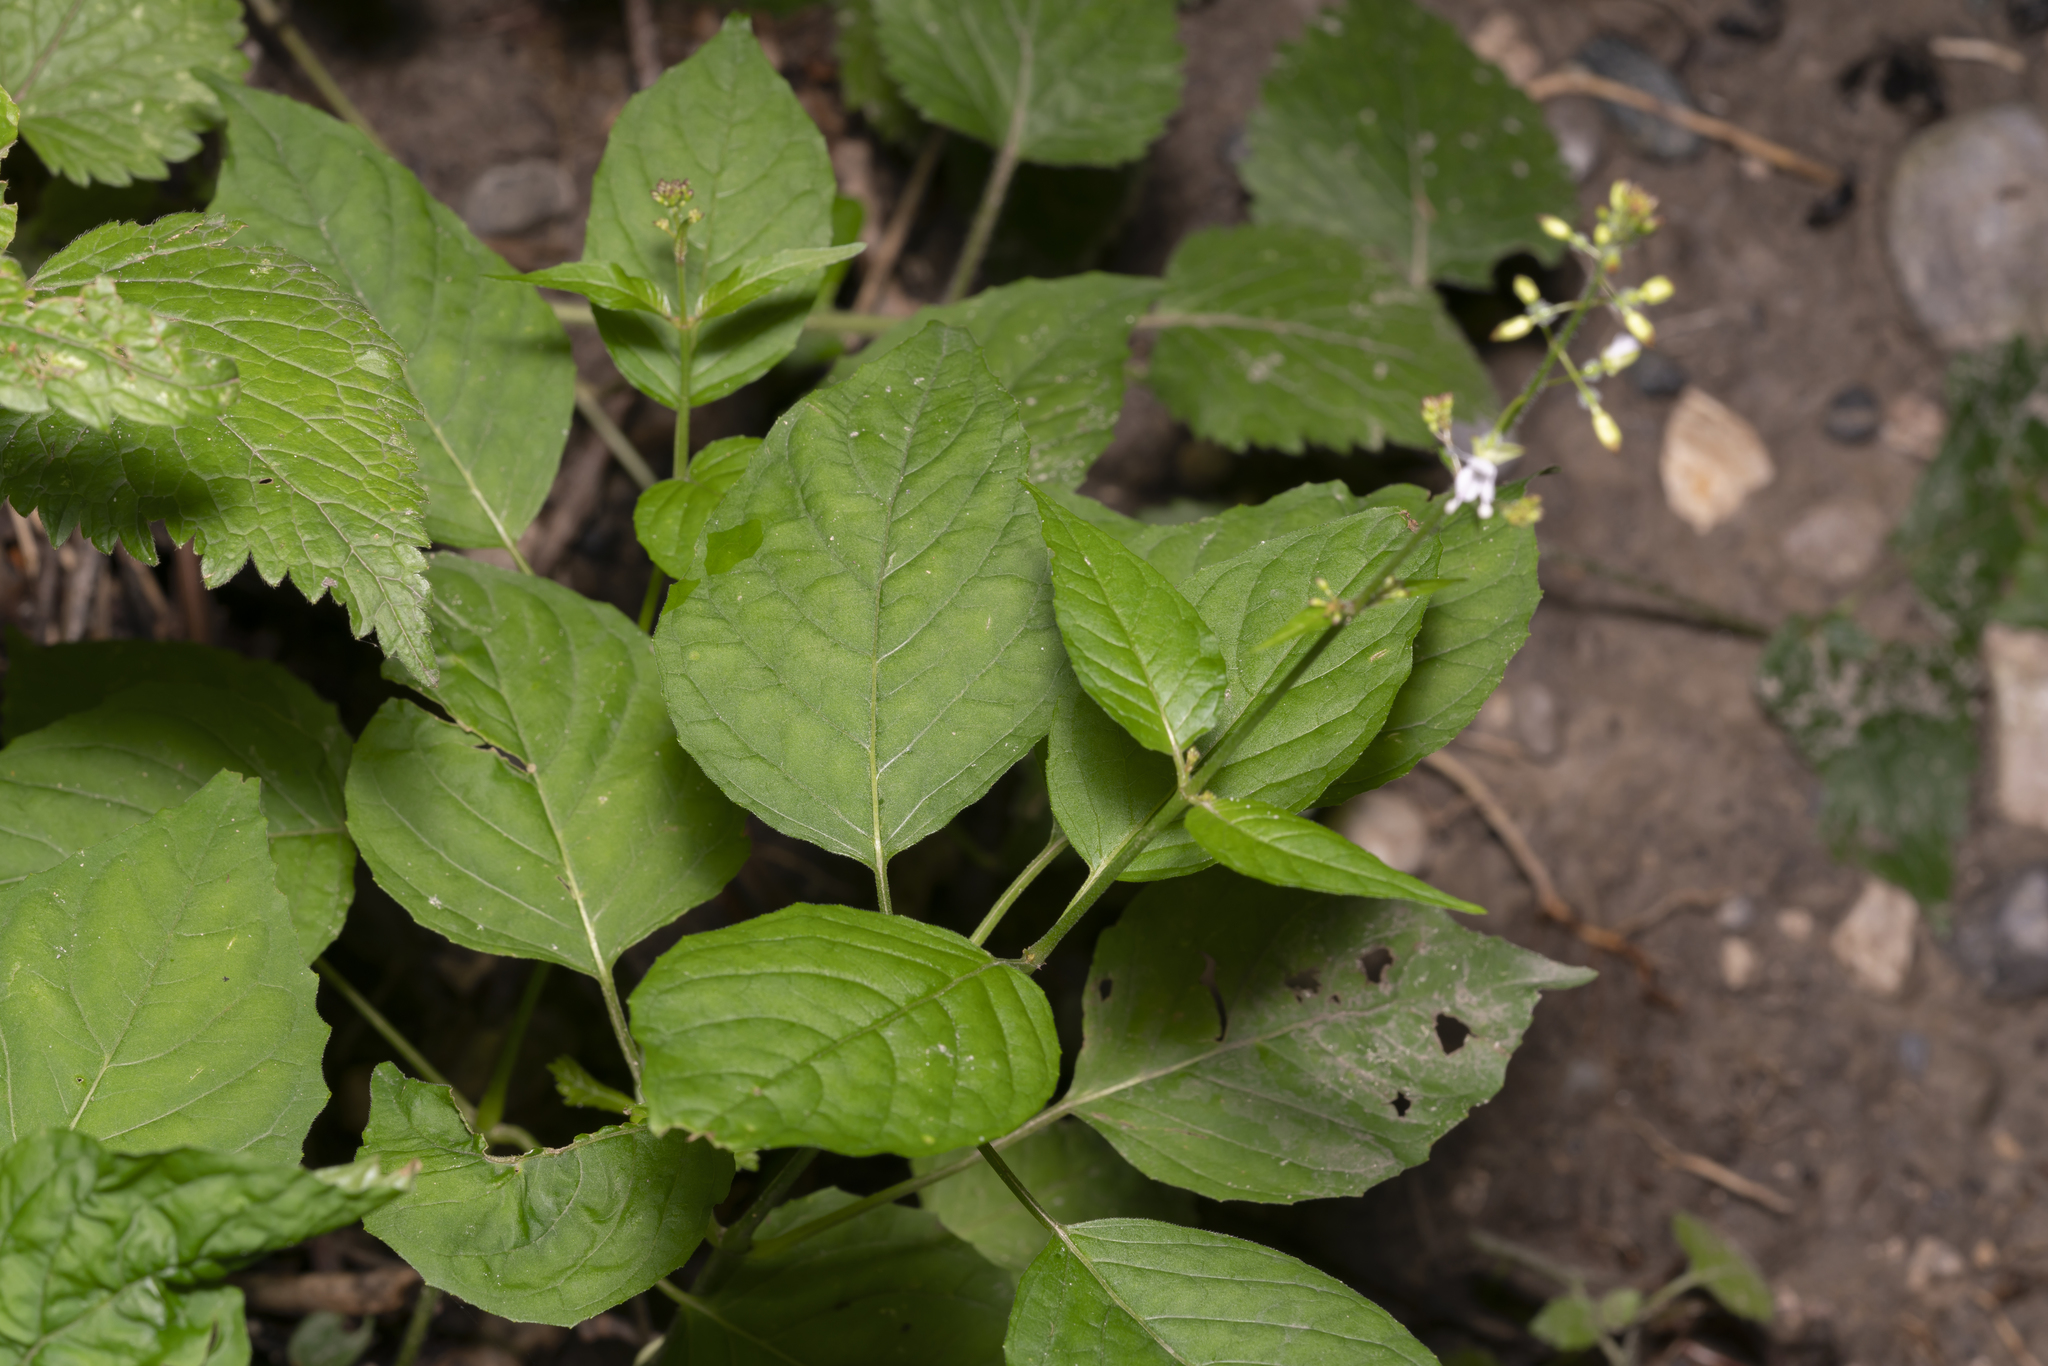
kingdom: Plantae
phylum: Tracheophyta
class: Magnoliopsida
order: Myrtales
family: Onagraceae
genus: Circaea
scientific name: Circaea lutetiana
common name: Enchanter's-nightshade
